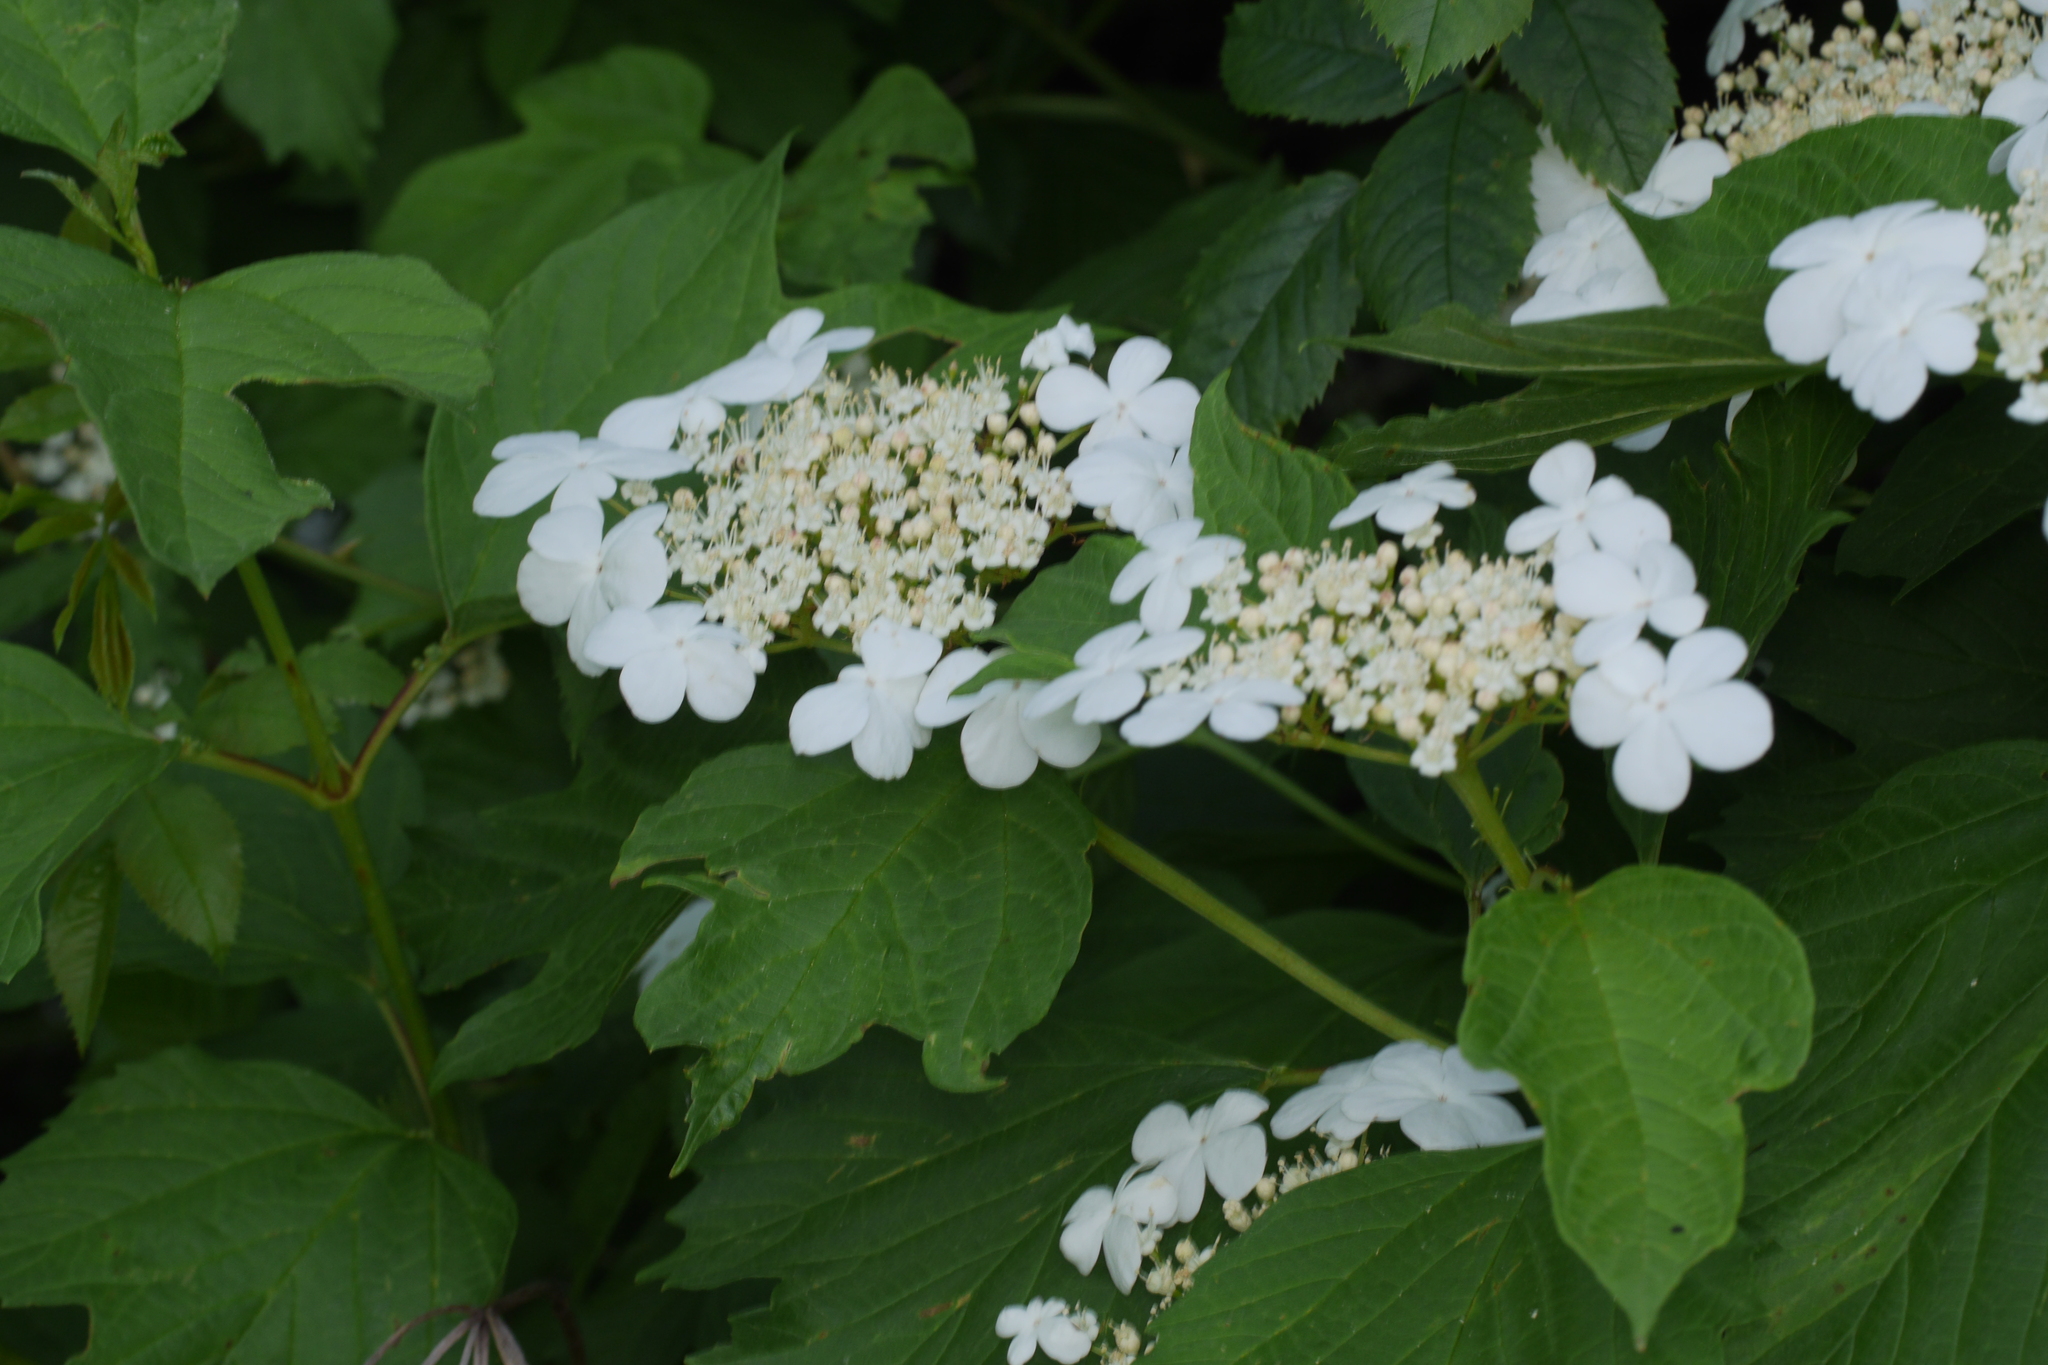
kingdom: Plantae
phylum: Tracheophyta
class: Magnoliopsida
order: Dipsacales
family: Viburnaceae
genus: Viburnum
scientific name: Viburnum opulus
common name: Guelder-rose
